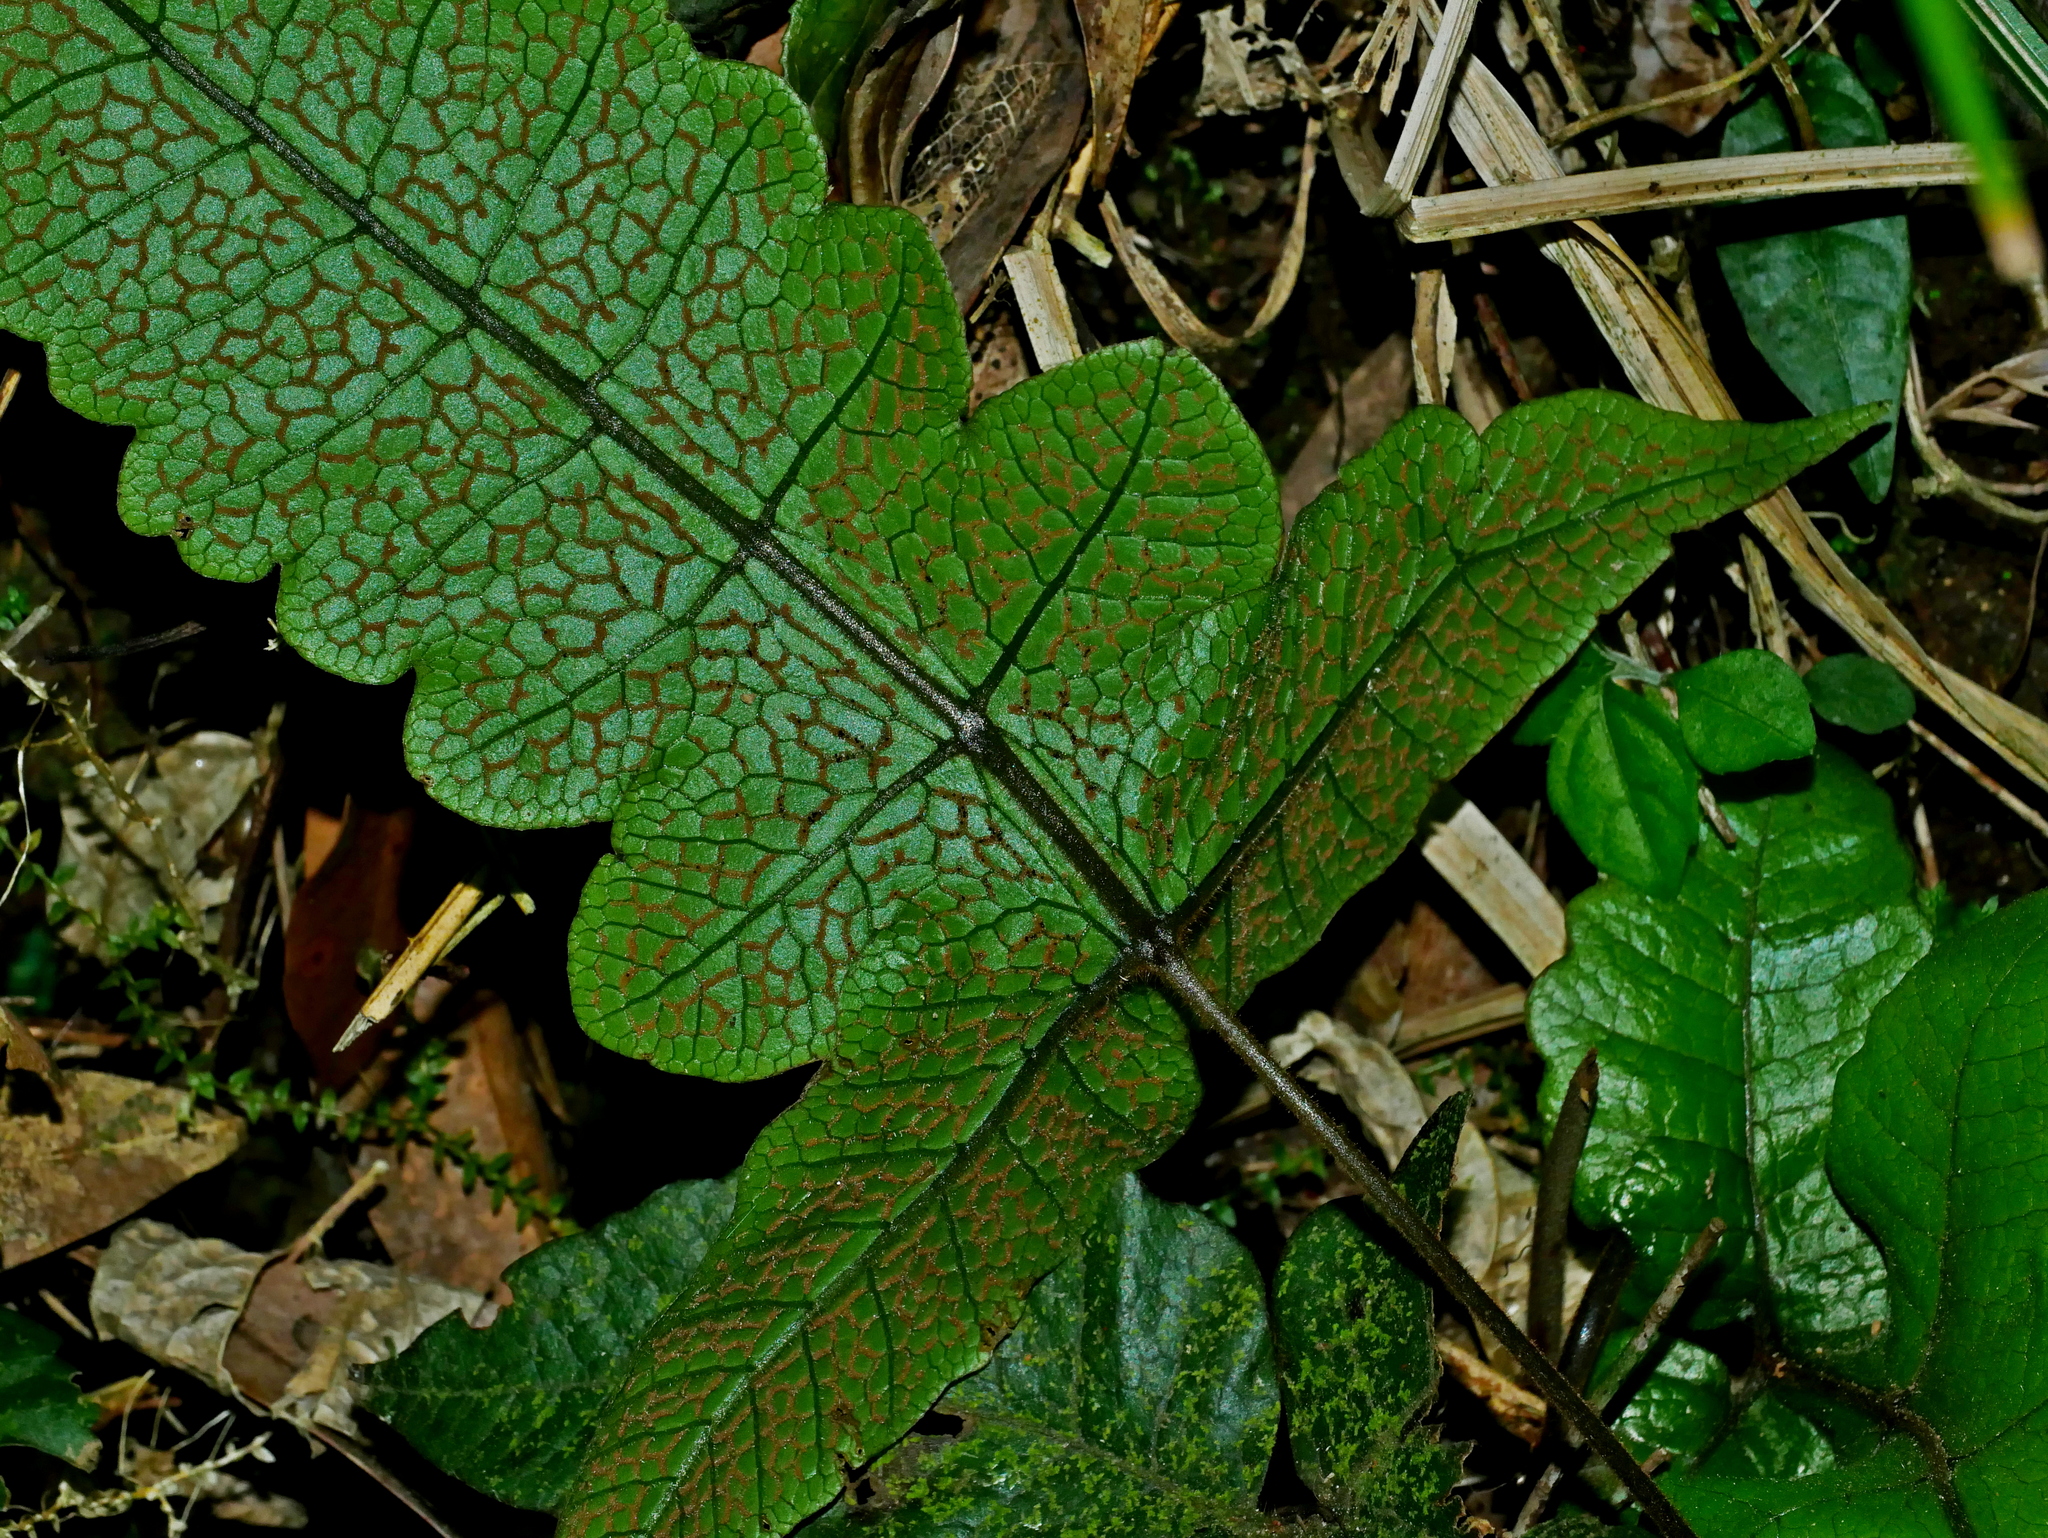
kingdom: Plantae
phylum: Tracheophyta
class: Polypodiopsida
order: Polypodiales
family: Thelypteridaceae
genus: Stegnogramma
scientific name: Stegnogramma wilfordii
